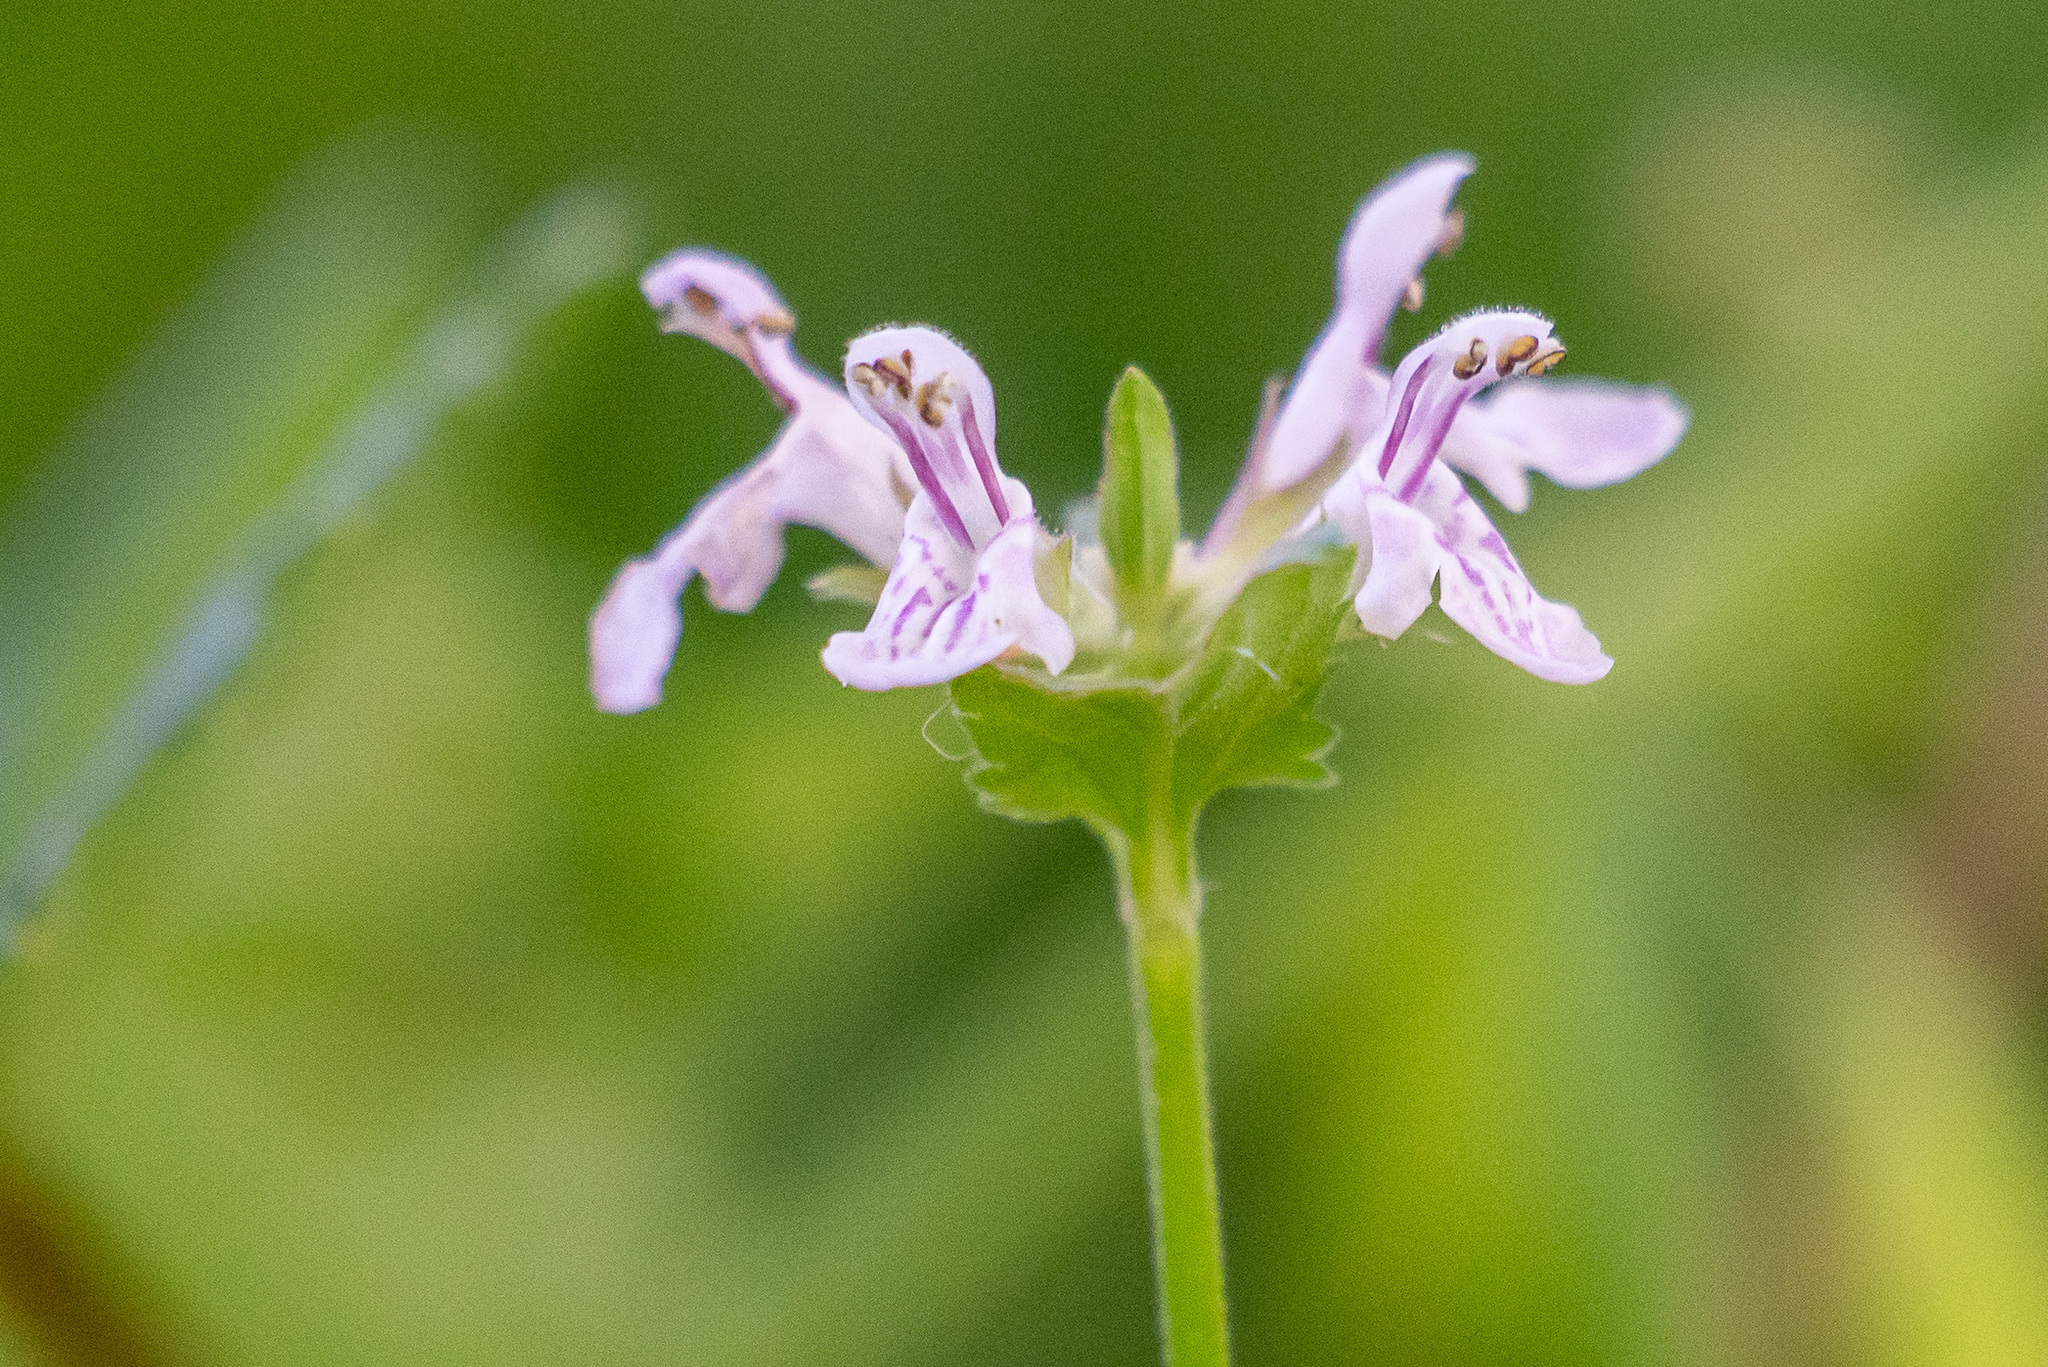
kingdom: Plantae
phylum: Tracheophyta
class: Magnoliopsida
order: Lamiales
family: Lamiaceae
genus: Stachys
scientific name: Stachys floridana
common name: Florida betony
